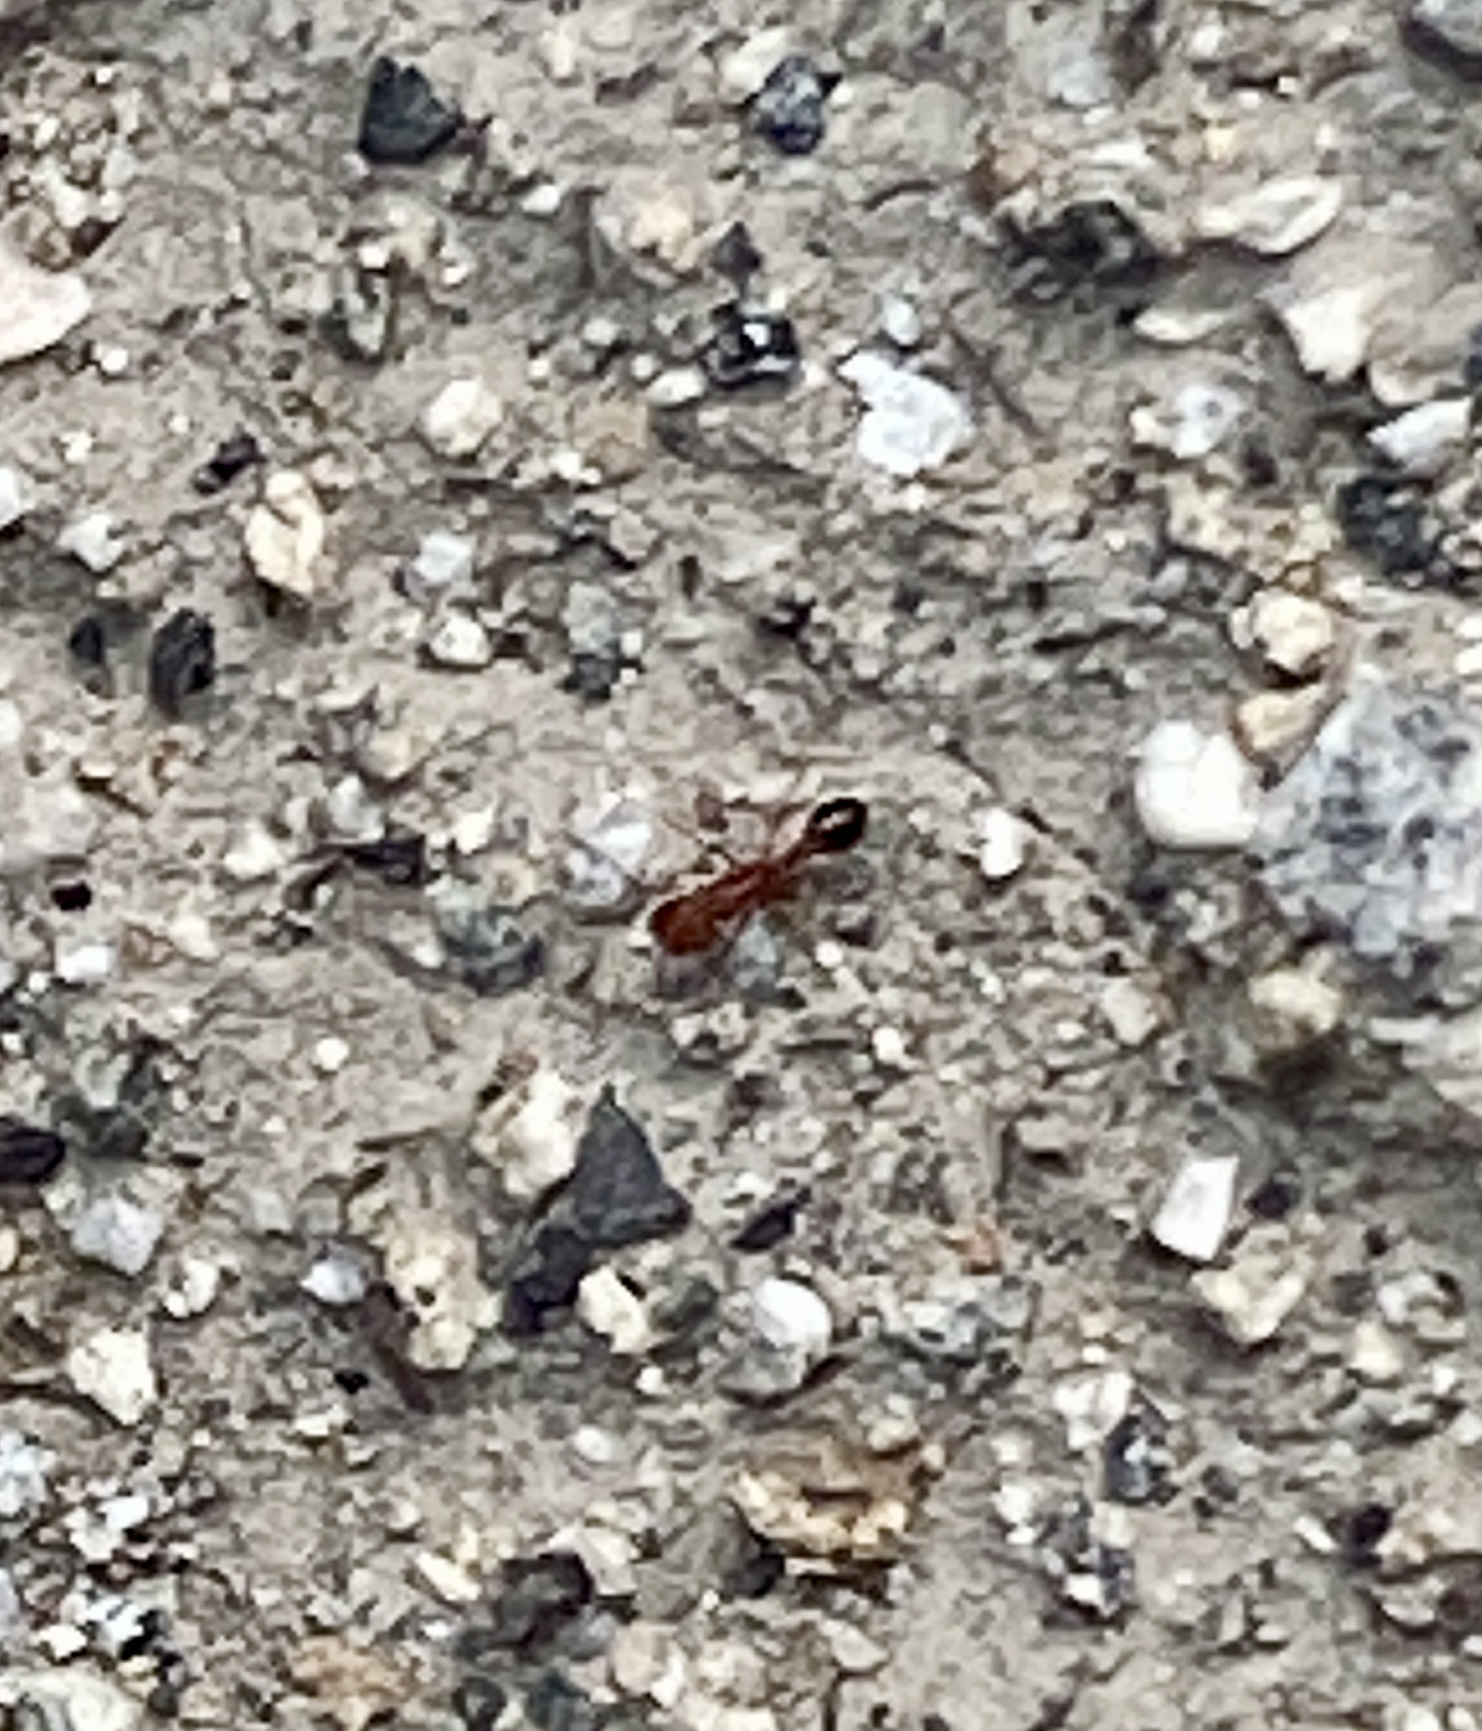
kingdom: Animalia
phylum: Arthropoda
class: Insecta
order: Hymenoptera
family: Formicidae
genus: Pogonomyrmex
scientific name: Pogonomyrmex californicus
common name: California harvester ant
